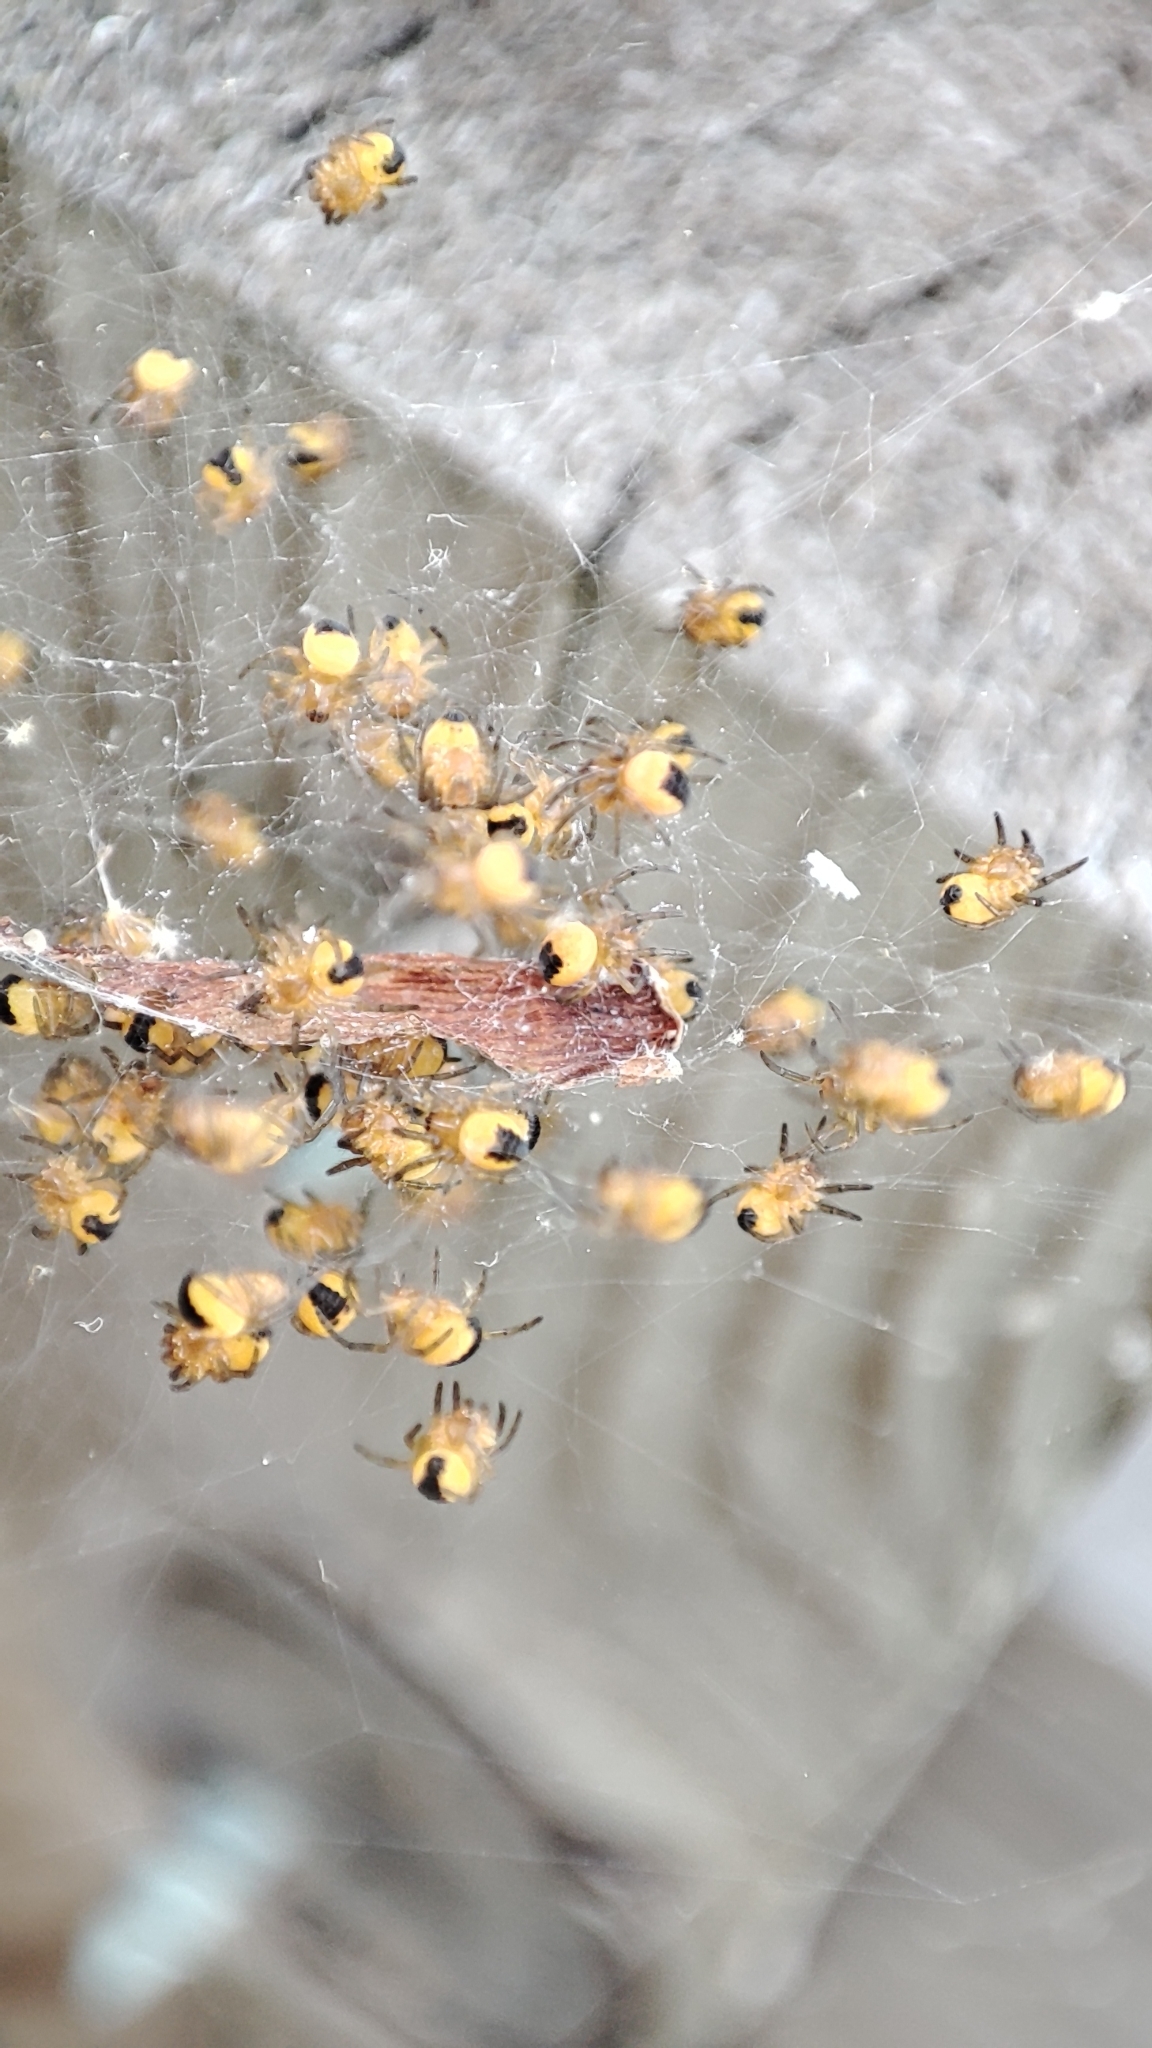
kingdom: Animalia
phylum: Arthropoda
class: Arachnida
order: Araneae
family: Araneidae
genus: Araneus
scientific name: Araneus diadematus
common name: Cross orbweaver
